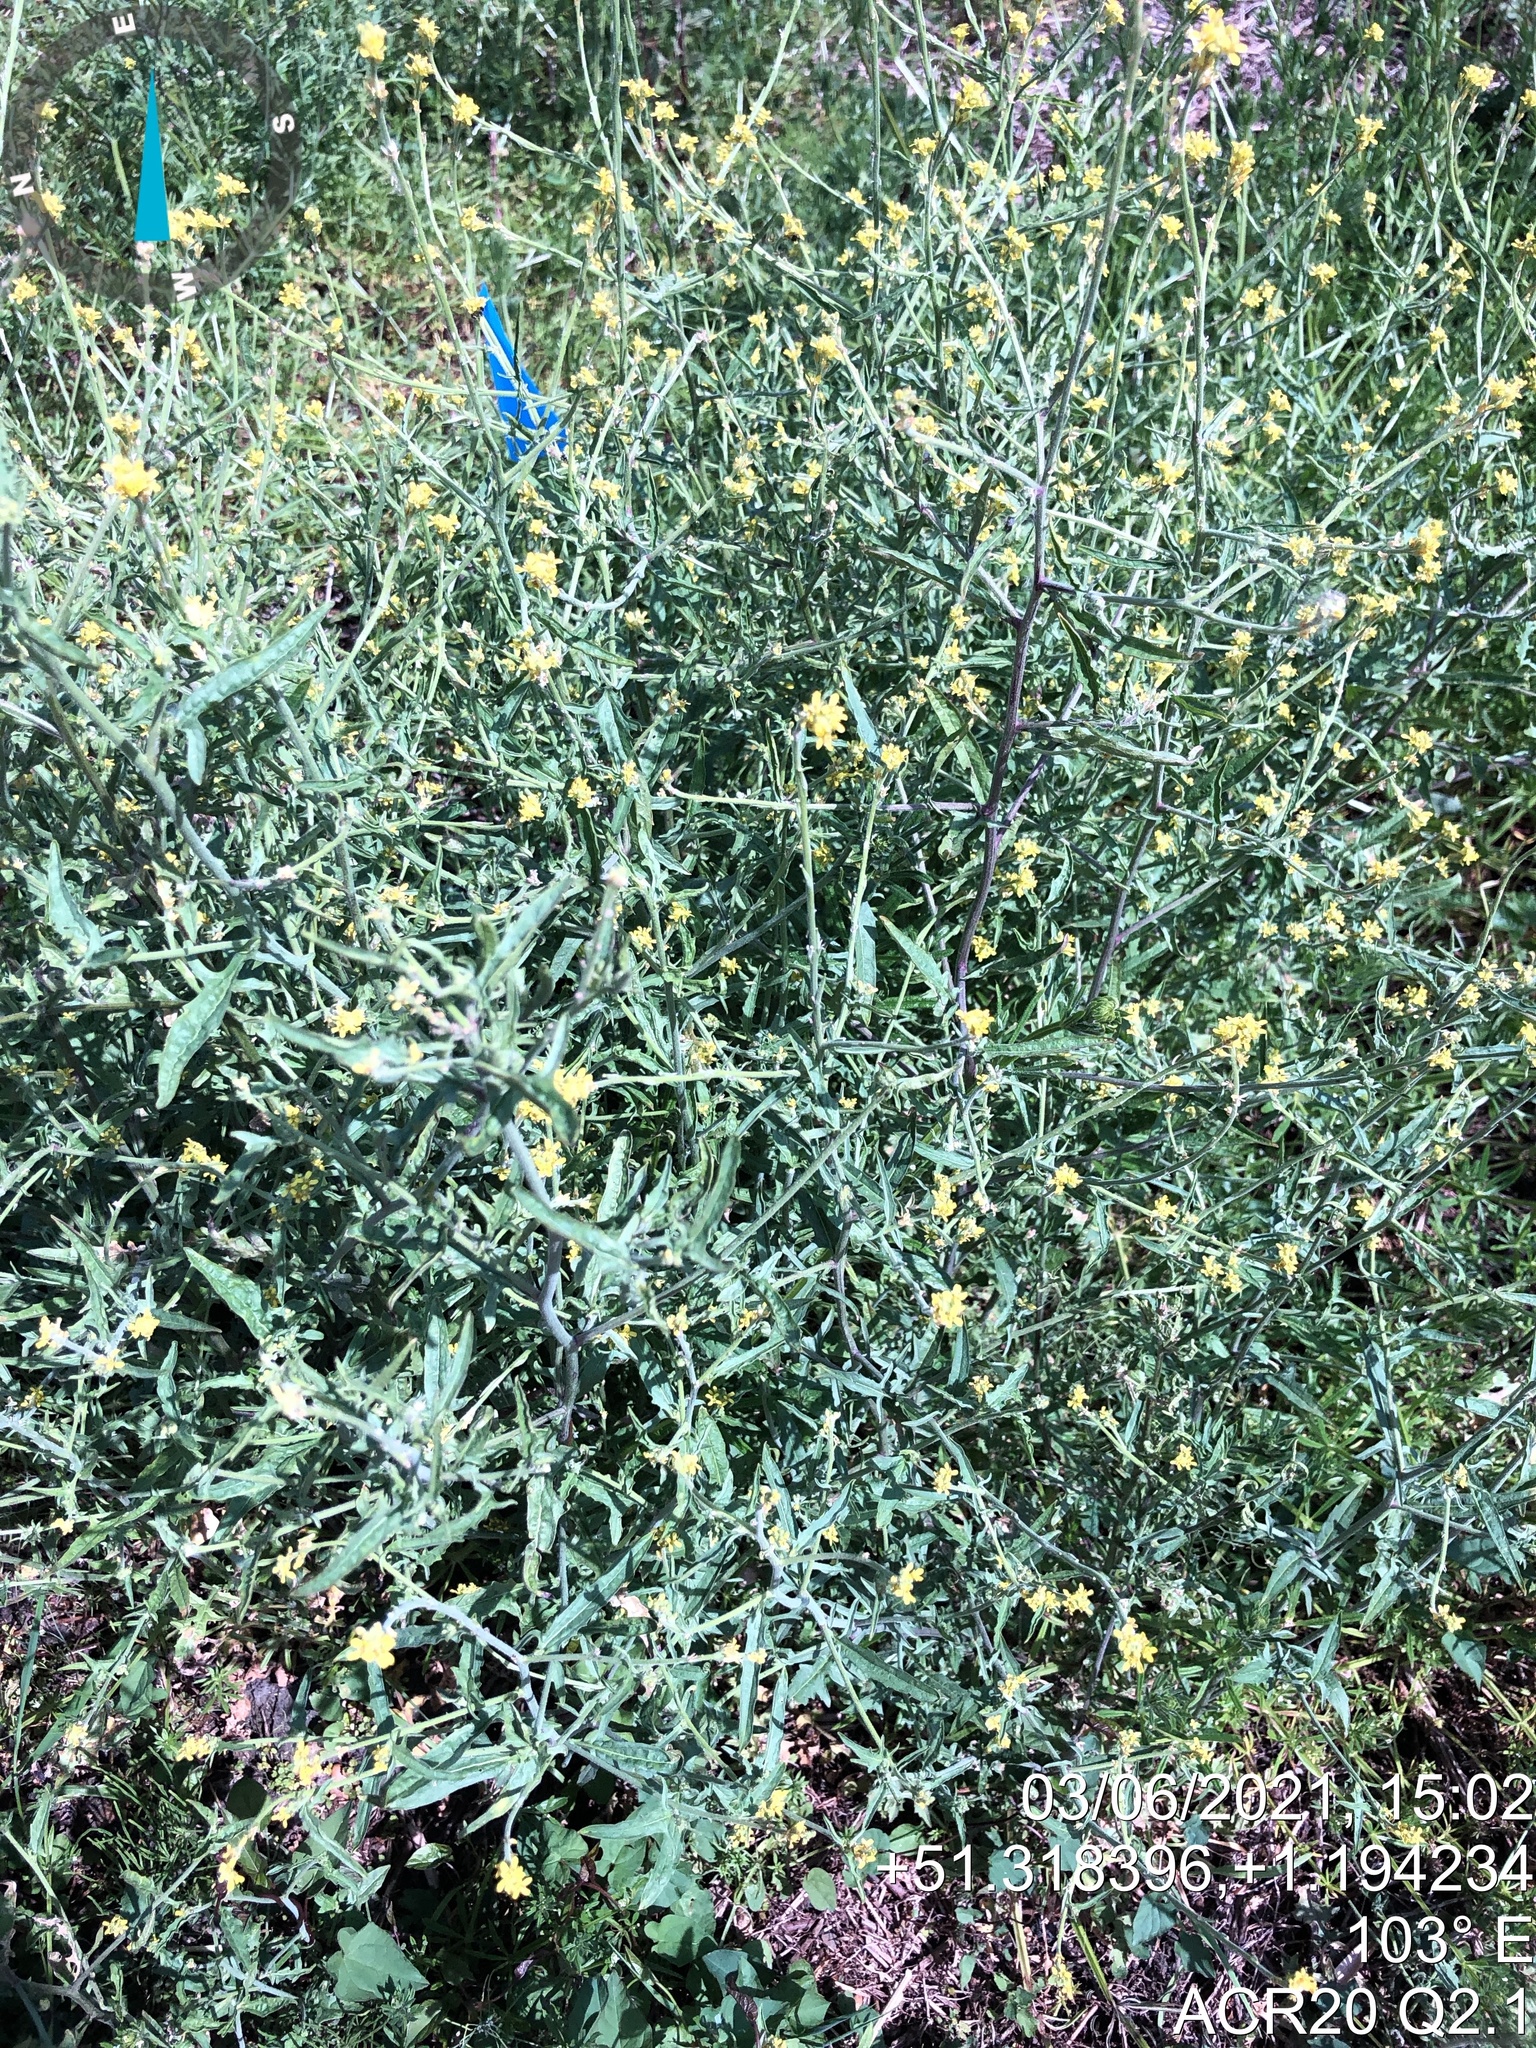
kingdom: Plantae
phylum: Tracheophyta
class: Magnoliopsida
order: Brassicales
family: Brassicaceae
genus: Sisymbrium
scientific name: Sisymbrium officinale
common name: Hedge mustard
